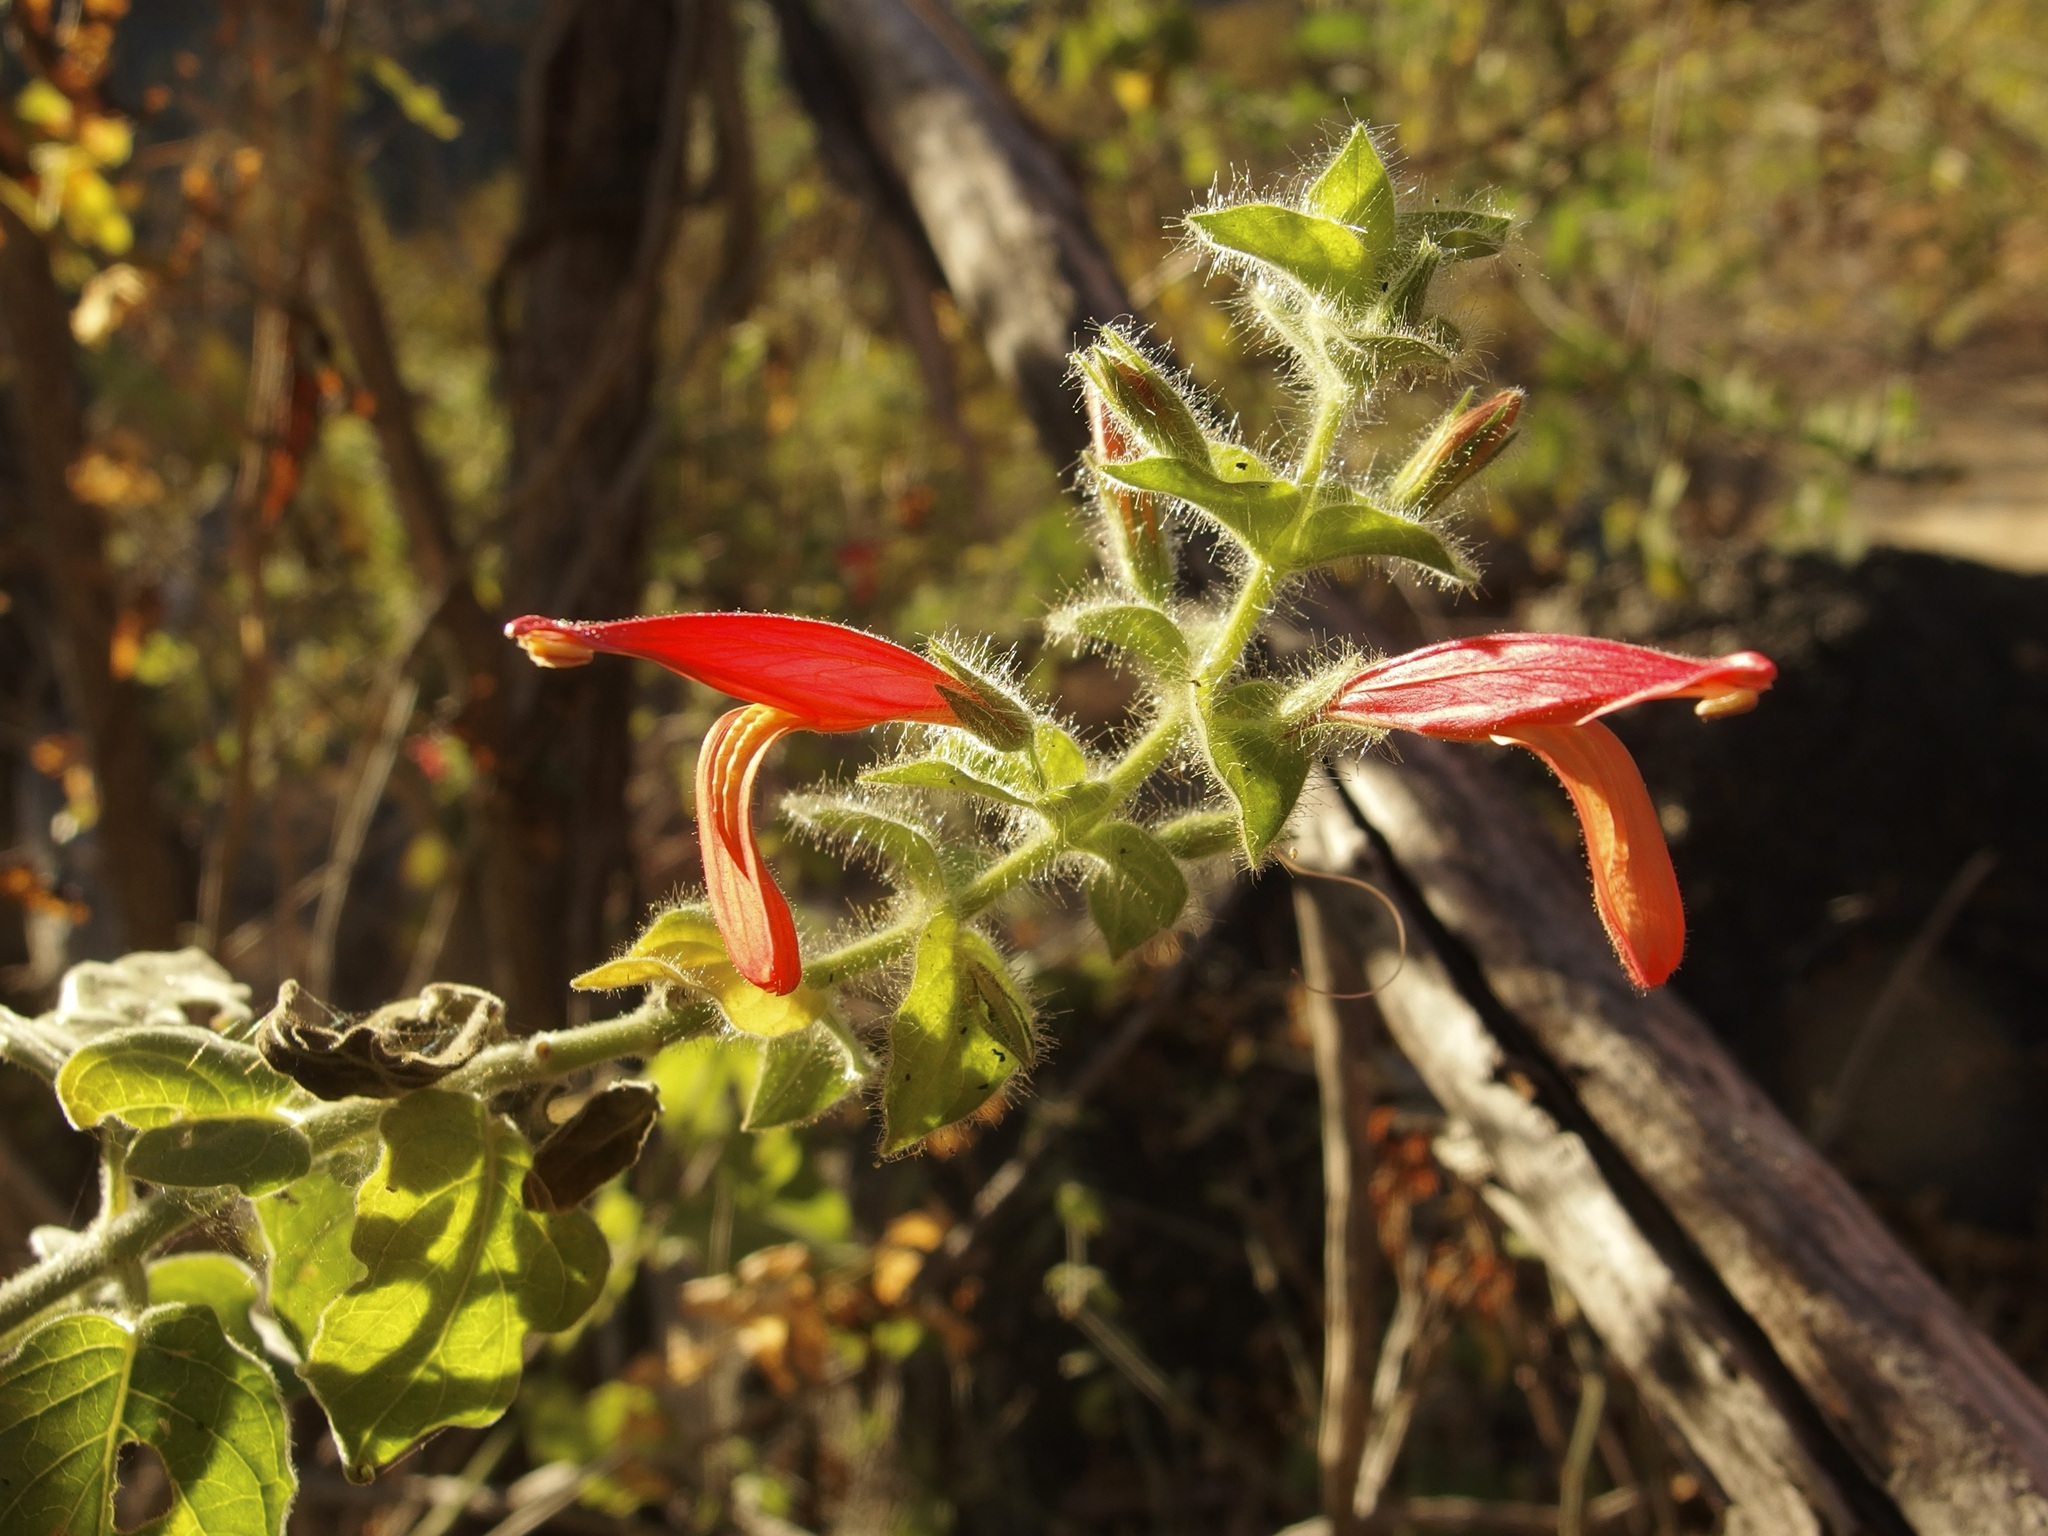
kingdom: Plantae
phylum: Tracheophyta
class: Magnoliopsida
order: Lamiales
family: Acanthaceae
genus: Justicia
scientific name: Justicia purpusii
